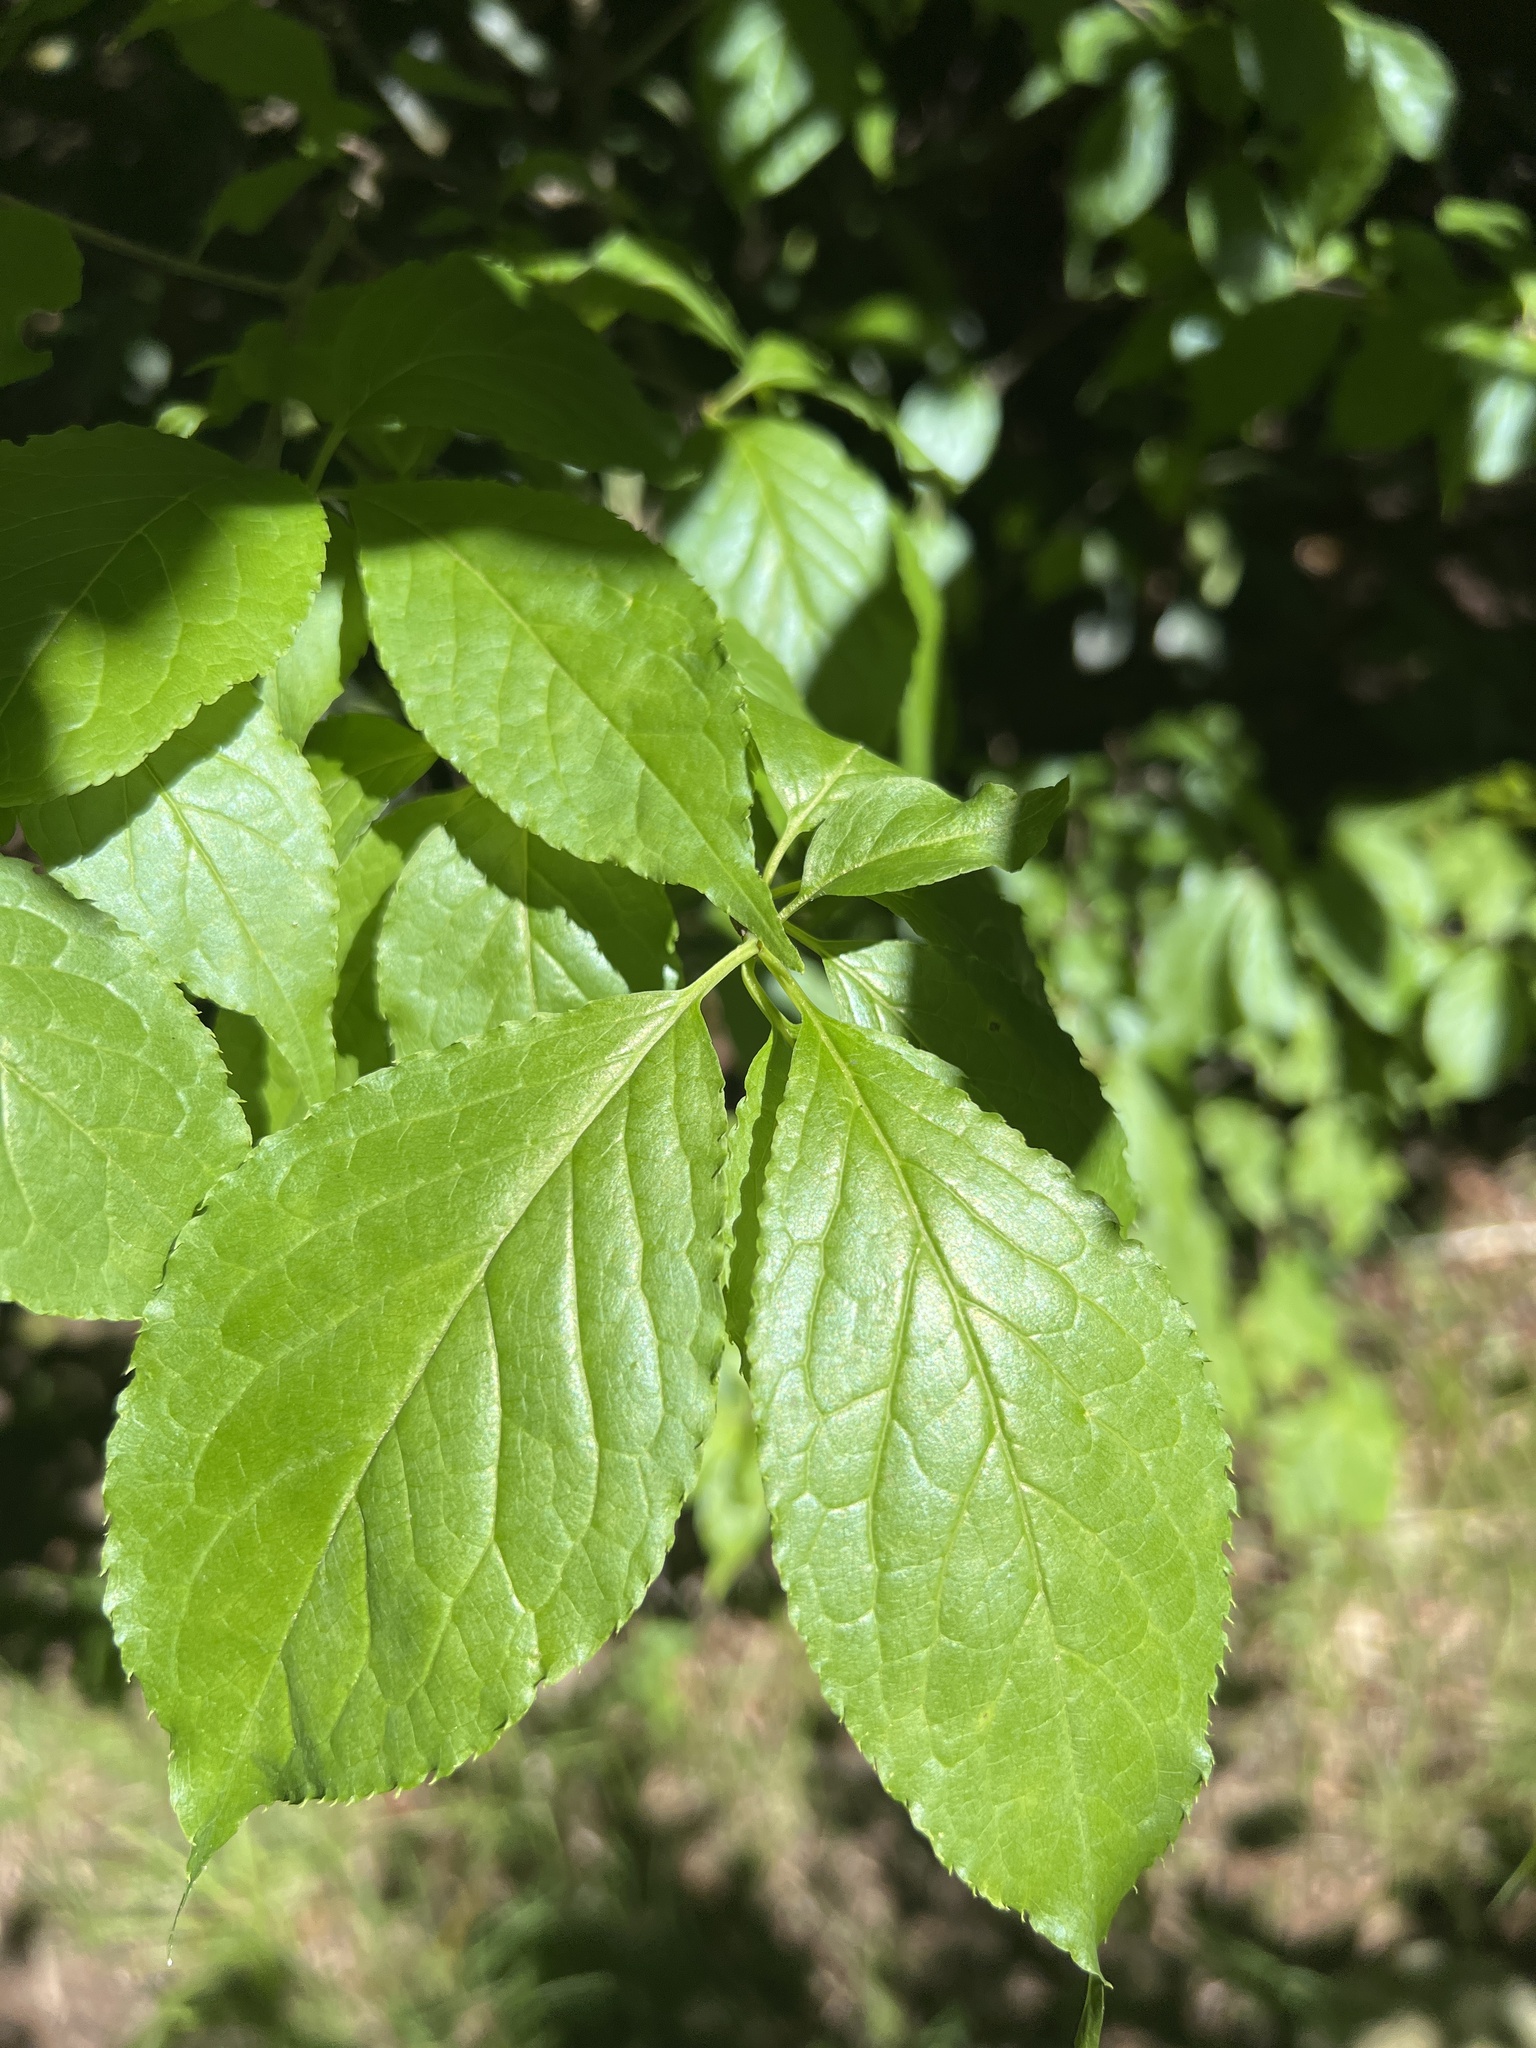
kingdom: Plantae
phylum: Tracheophyta
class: Magnoliopsida
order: Aquifoliales
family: Aquifoliaceae
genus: Ilex
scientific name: Ilex montana
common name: Mountain winterberry
